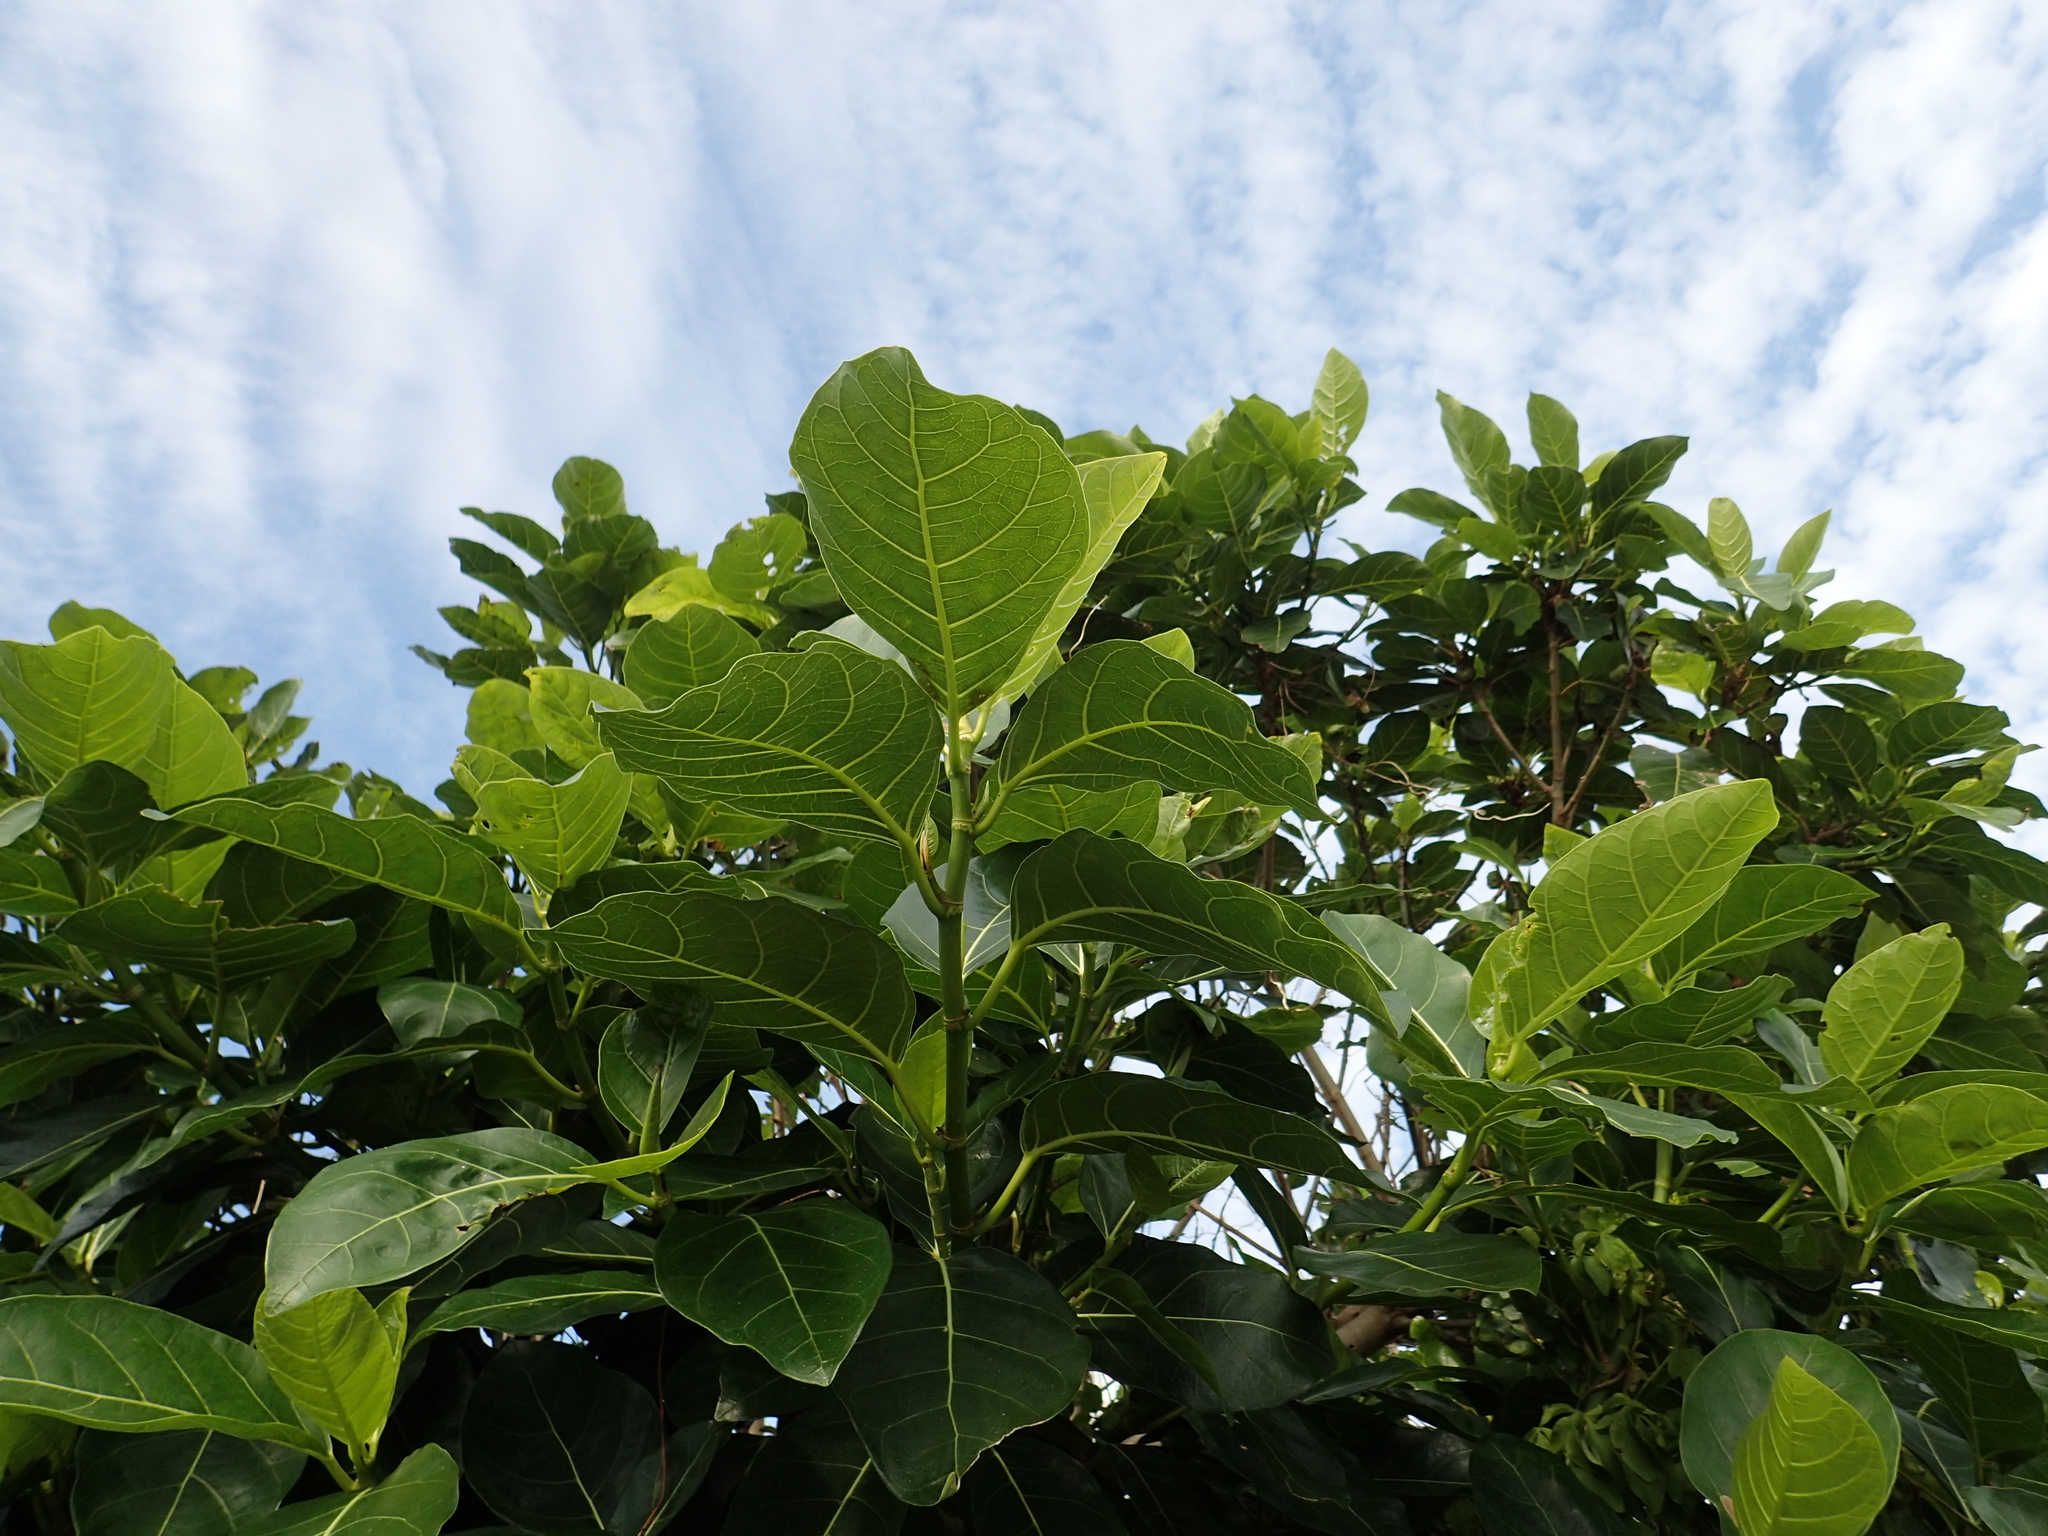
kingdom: Plantae
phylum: Tracheophyta
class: Magnoliopsida
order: Rosales
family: Moraceae
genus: Ficus
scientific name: Ficus septica
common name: Septic fig
